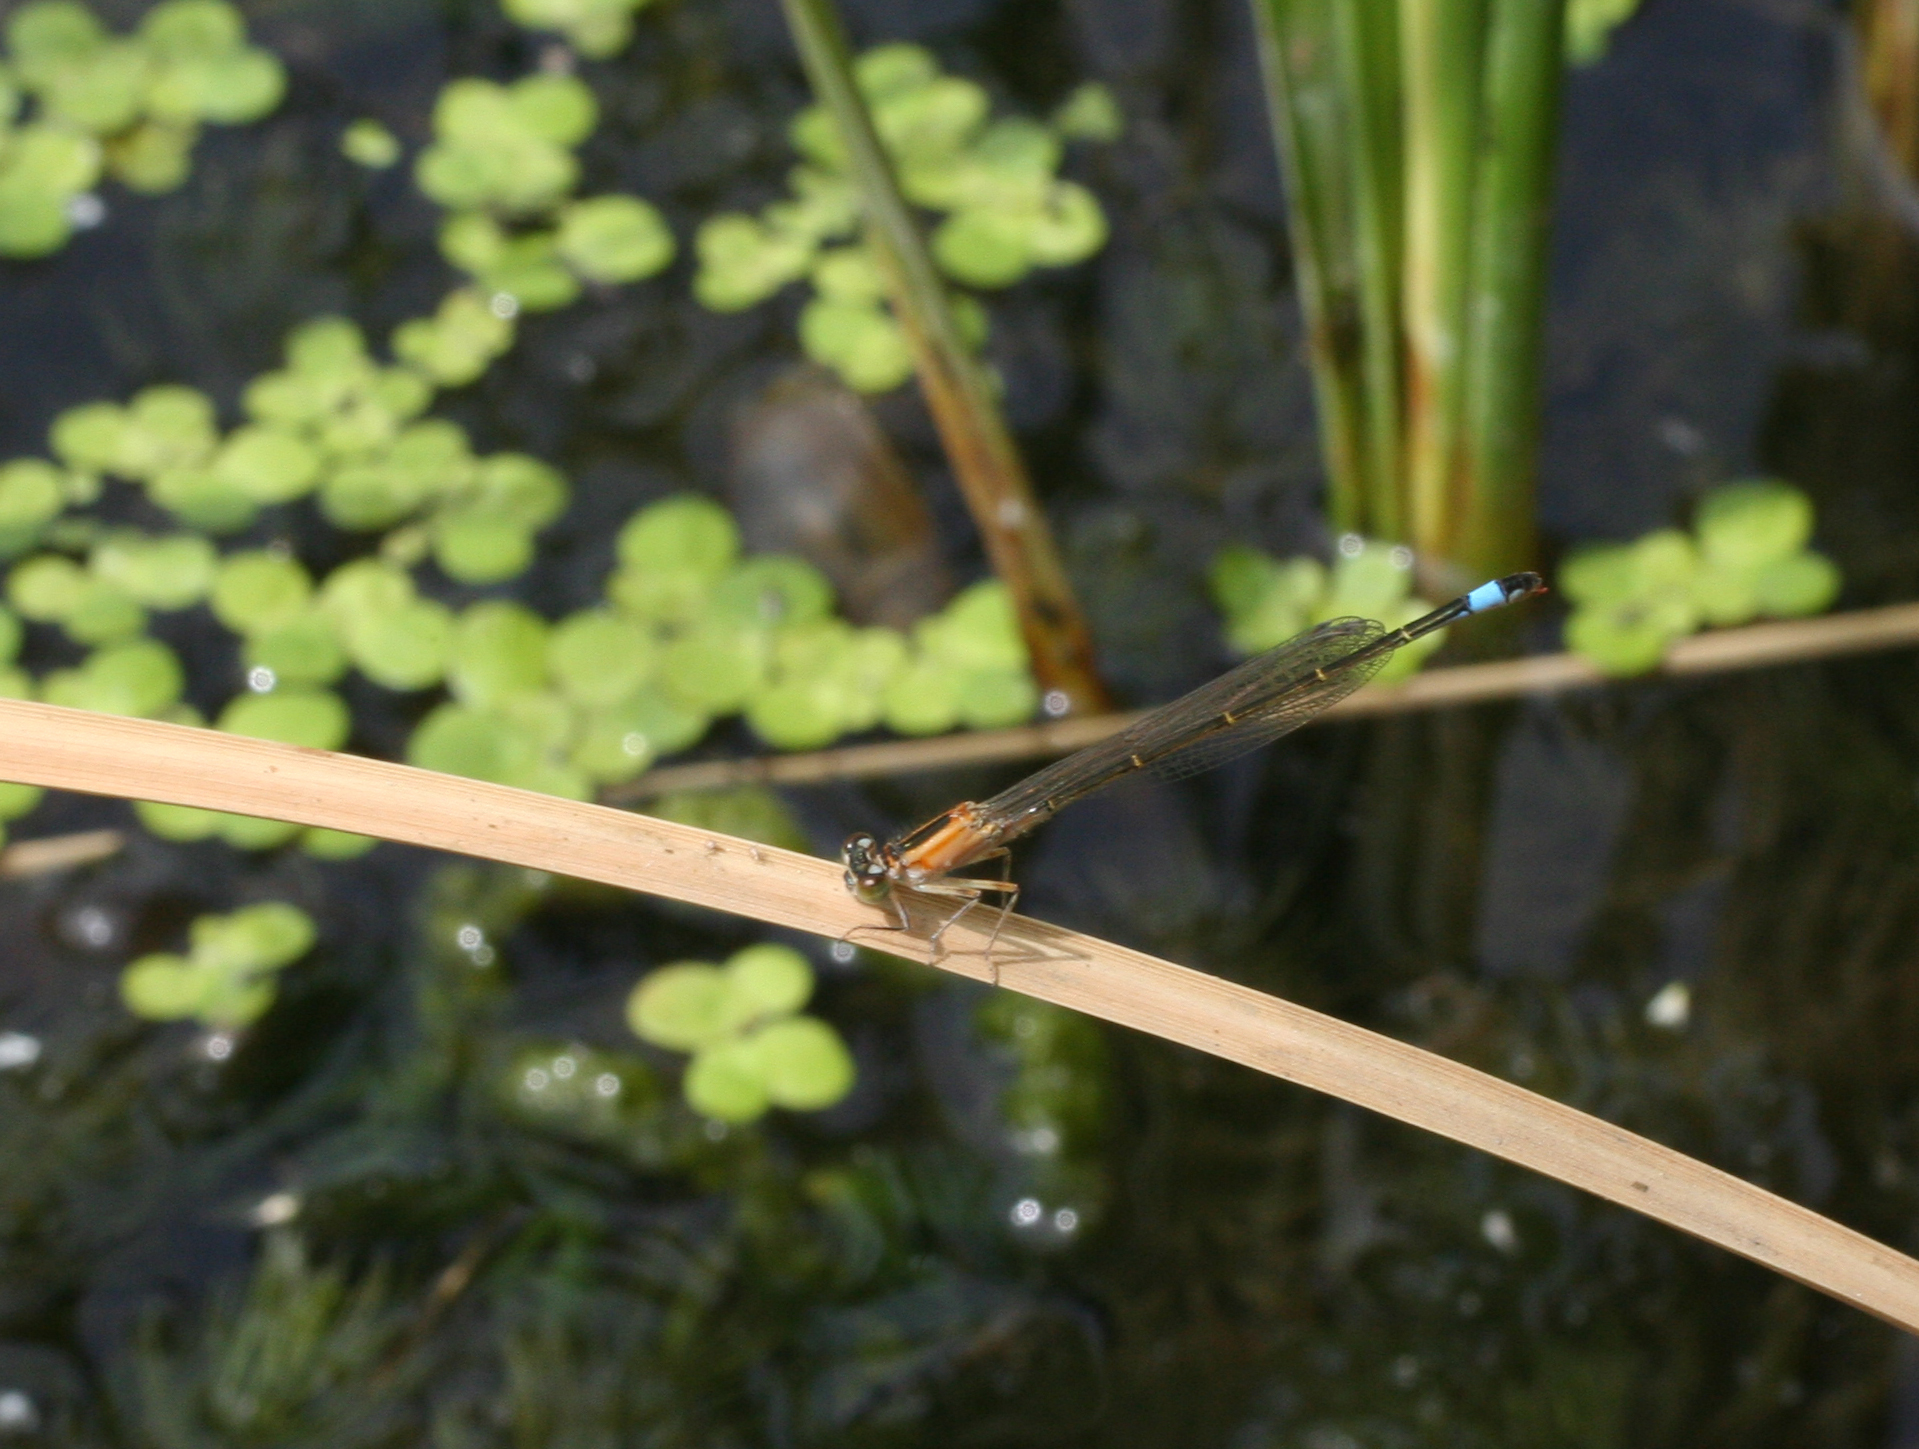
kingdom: Plantae
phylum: Tracheophyta
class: Liliopsida
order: Alismatales
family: Araceae
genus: Spirodela
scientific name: Spirodela polyrhiza
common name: Great duckweed
